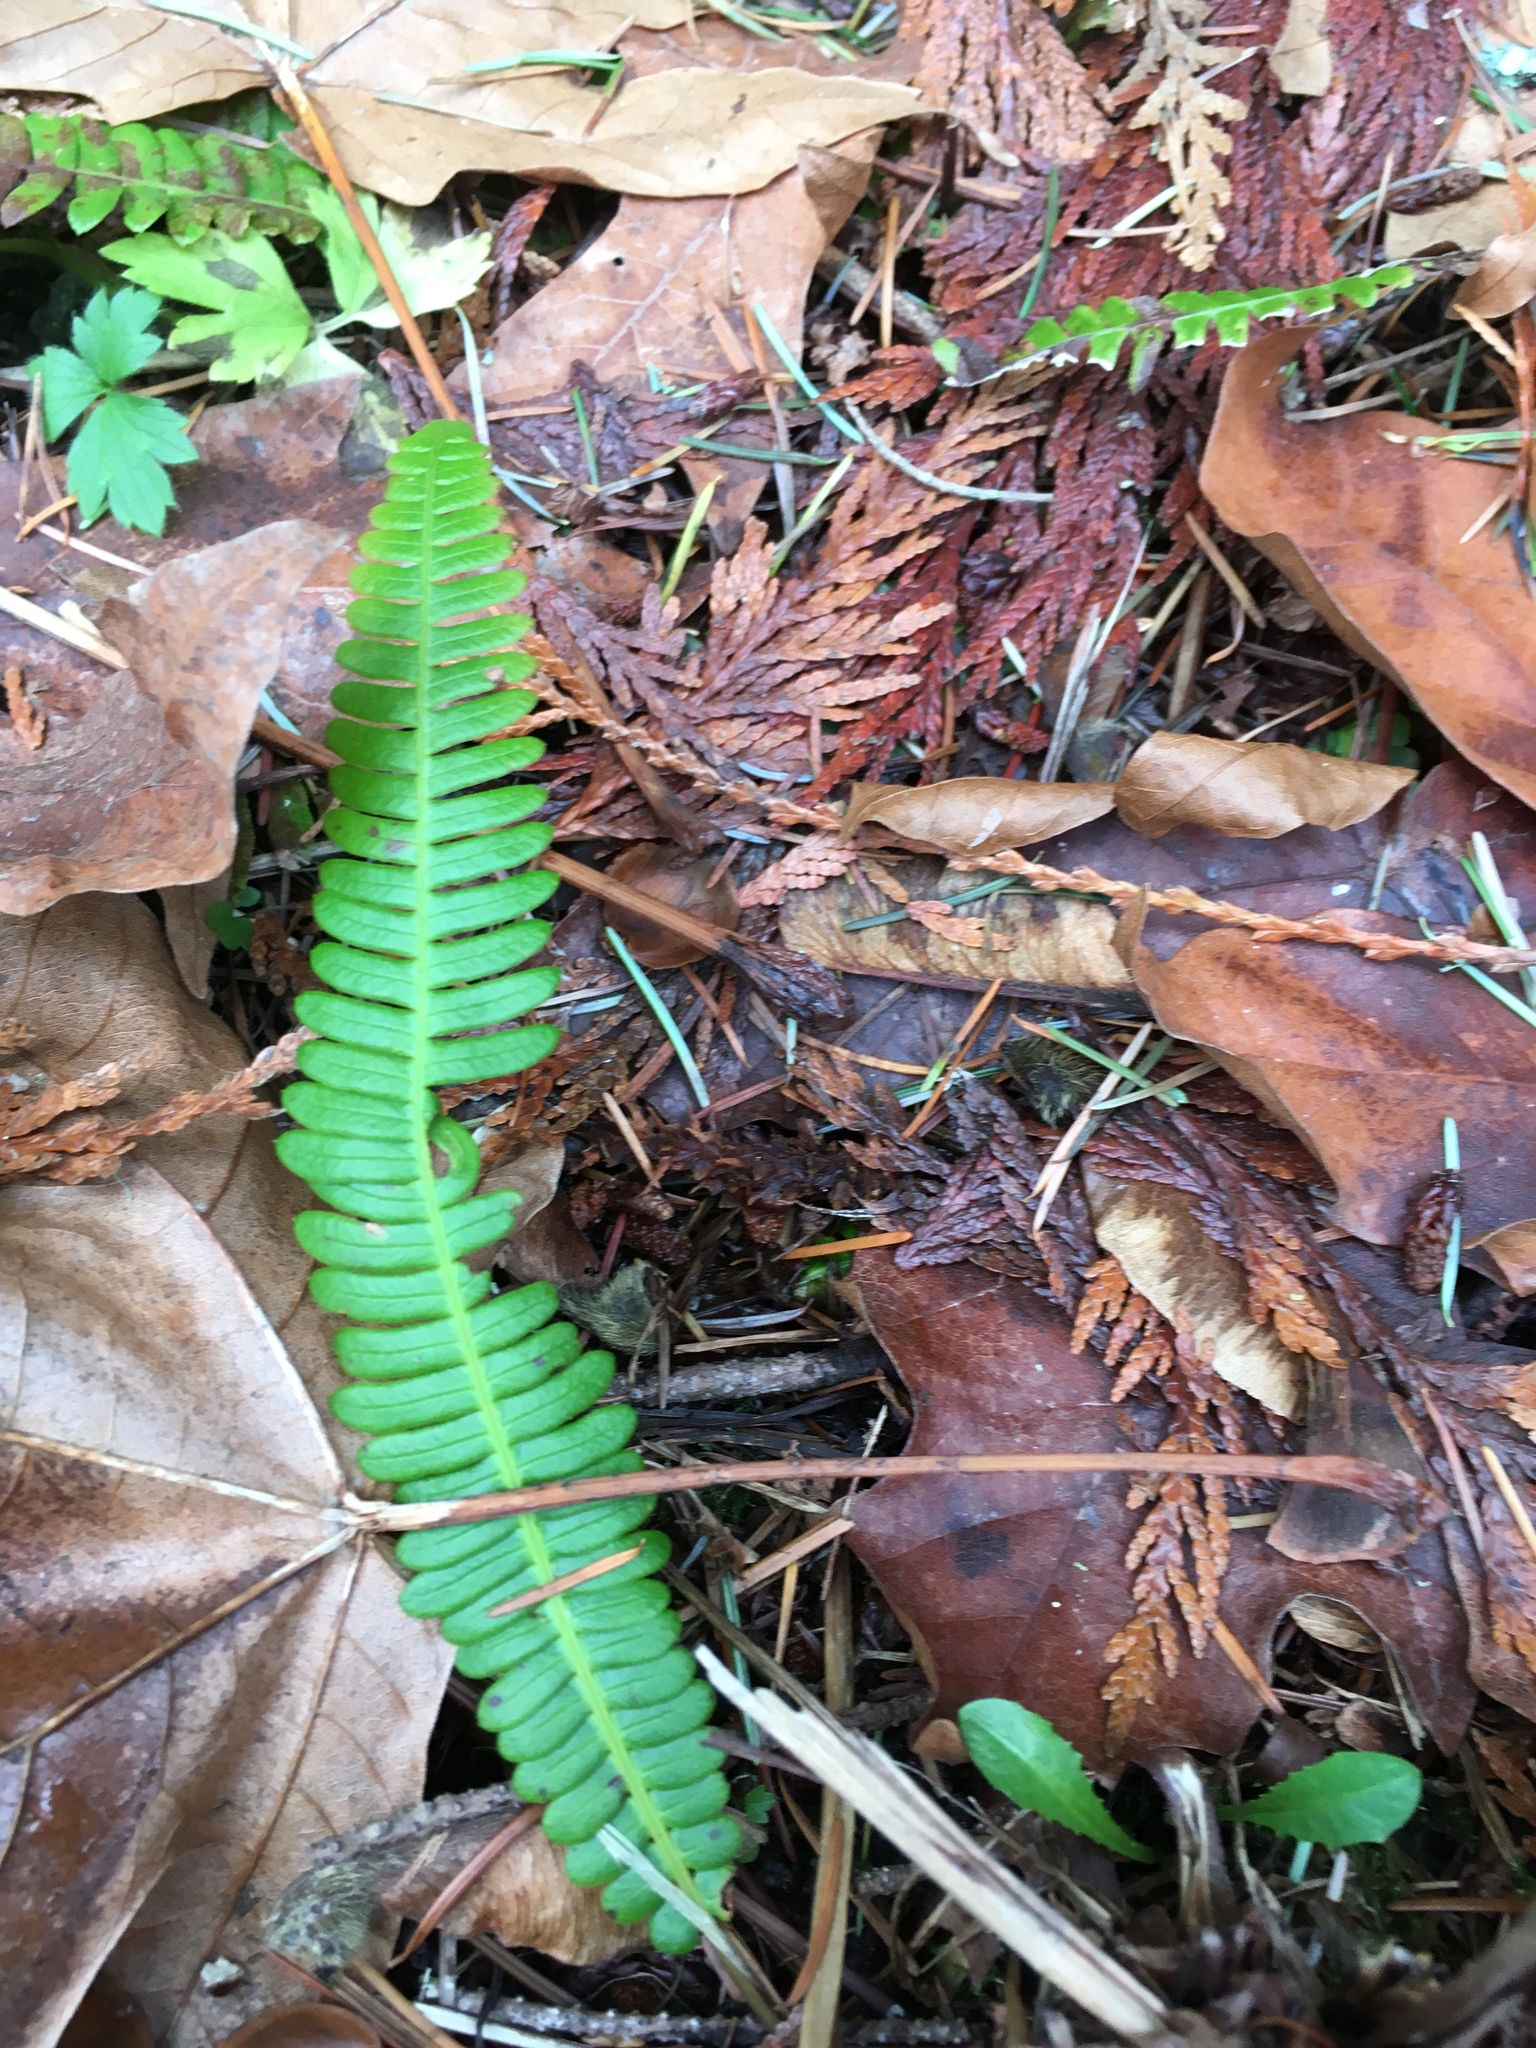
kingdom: Plantae
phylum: Tracheophyta
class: Polypodiopsida
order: Polypodiales
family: Blechnaceae
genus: Struthiopteris
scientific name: Struthiopteris spicant
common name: Deer fern
